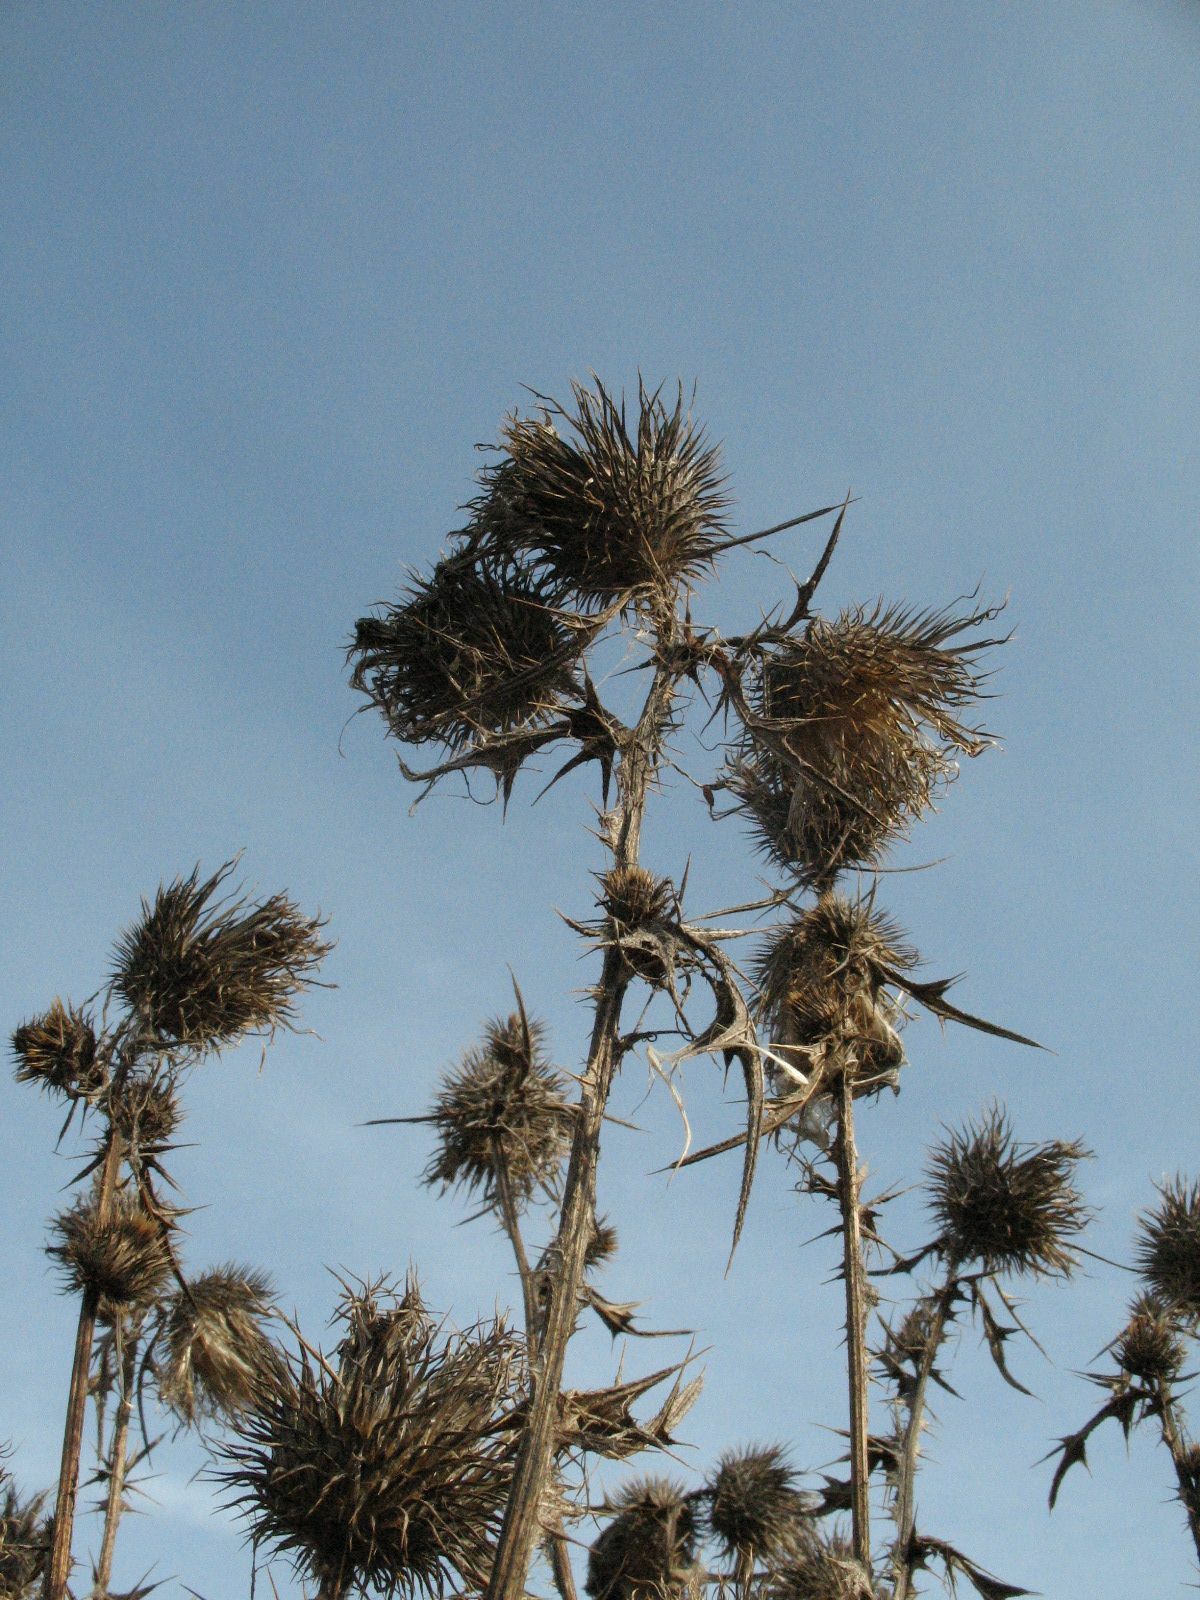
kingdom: Plantae
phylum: Tracheophyta
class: Magnoliopsida
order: Asterales
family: Asteraceae
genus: Cirsium
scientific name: Cirsium vulgare
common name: Bull thistle
